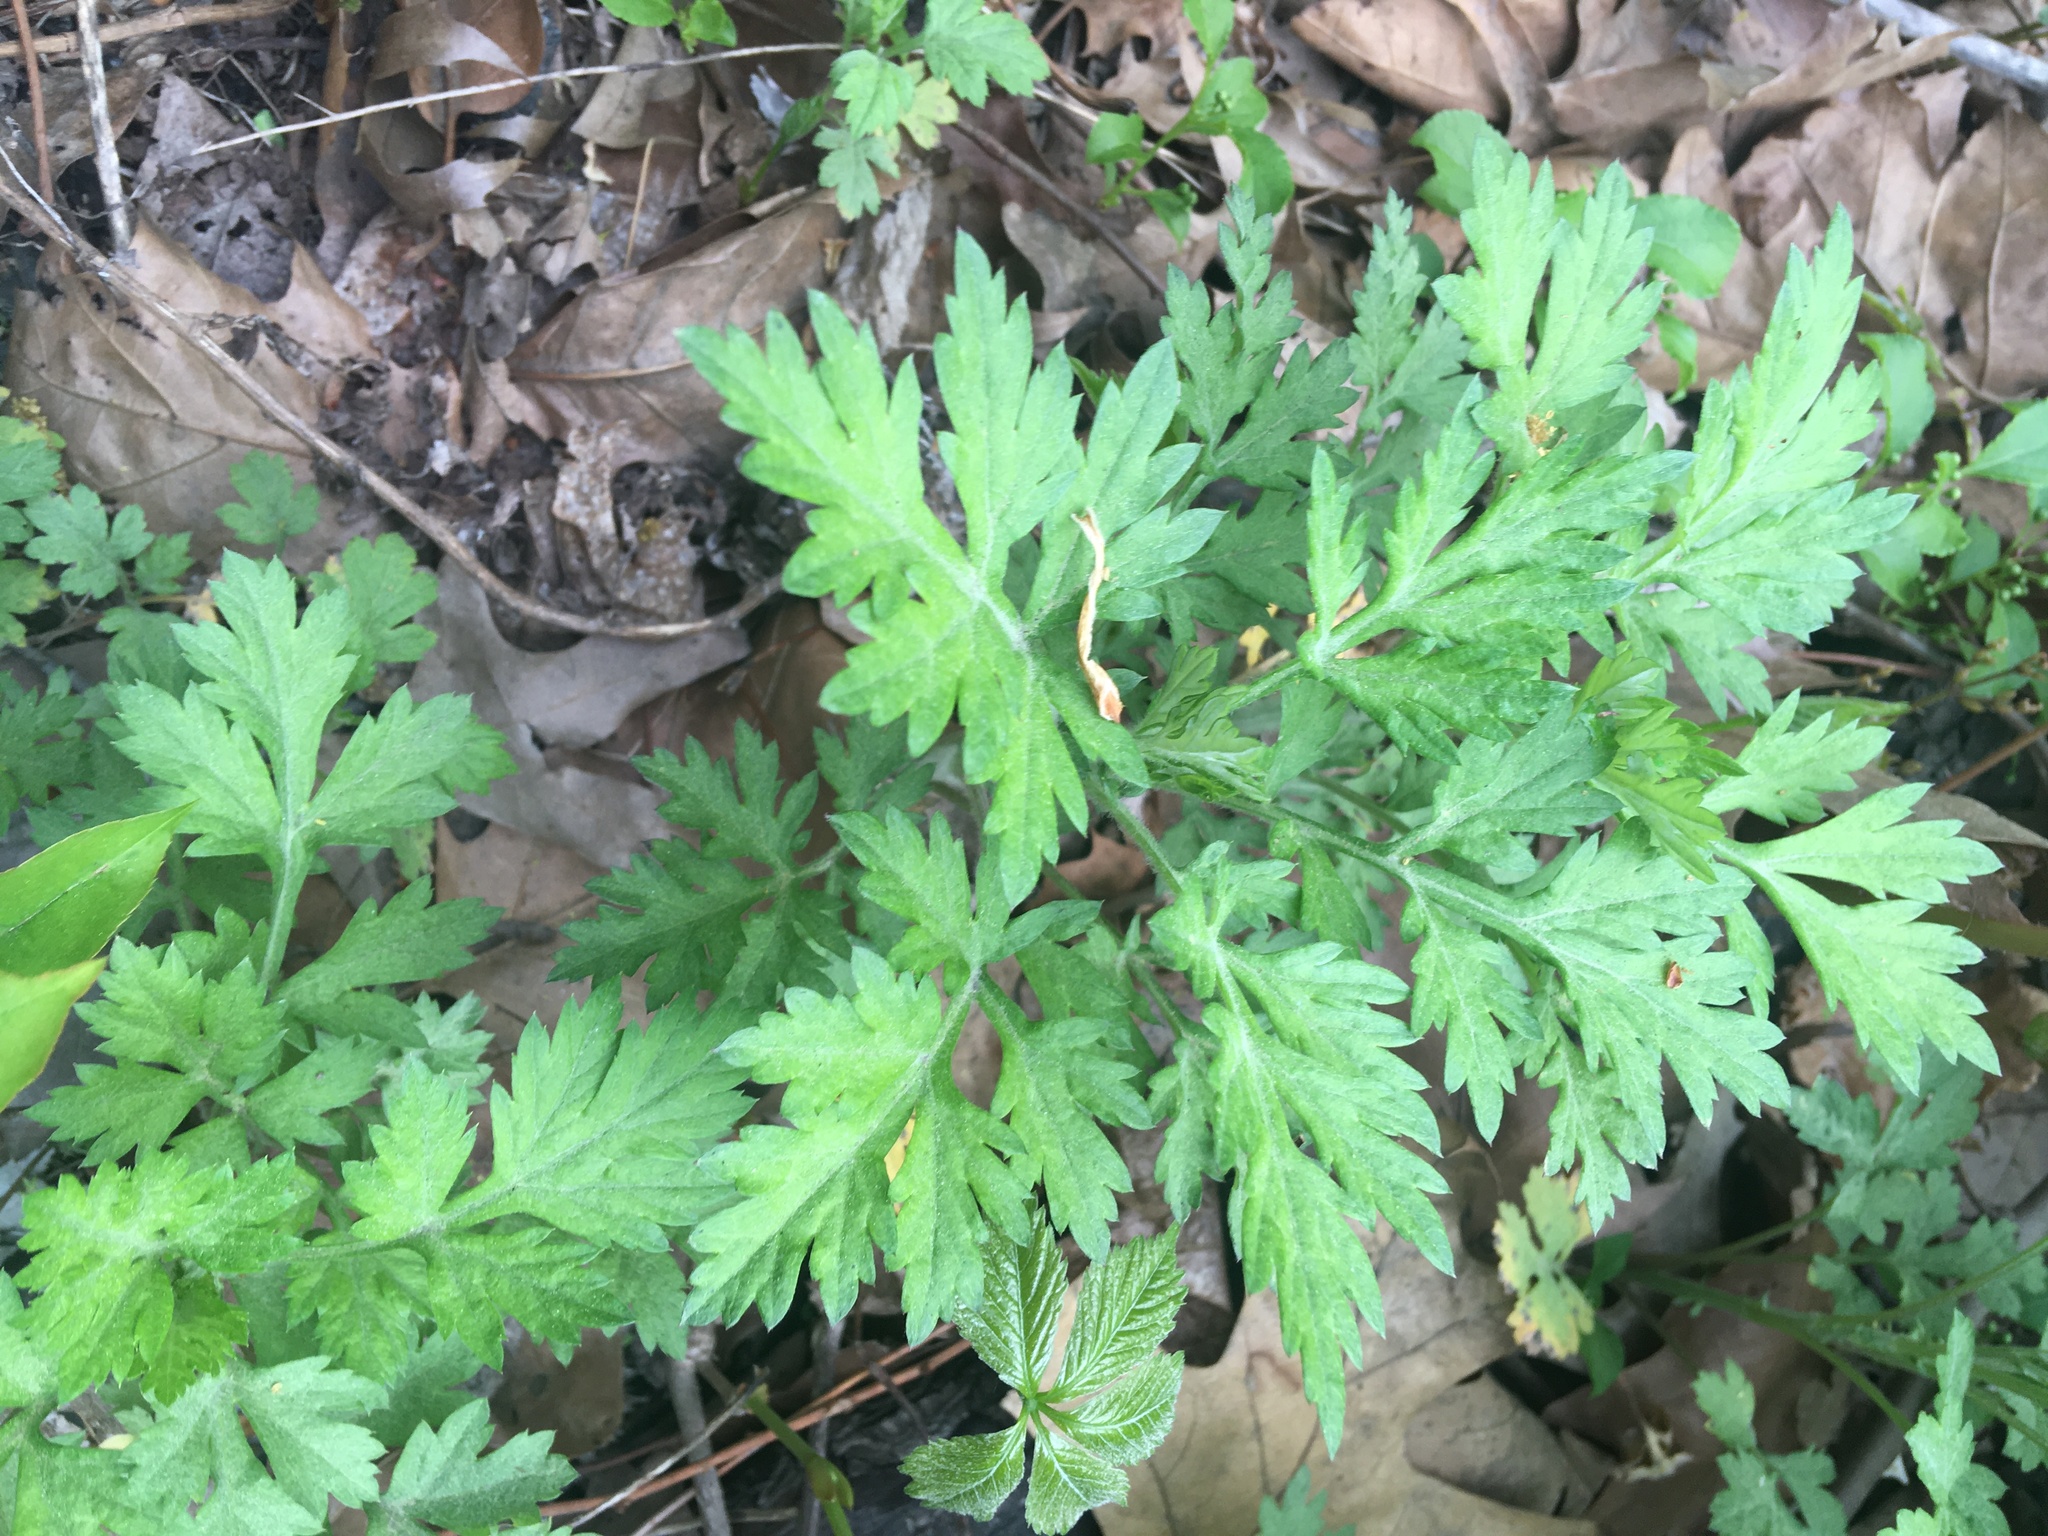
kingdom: Plantae
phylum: Tracheophyta
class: Magnoliopsida
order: Asterales
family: Asteraceae
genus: Artemisia
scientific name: Artemisia vulgaris
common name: Mugwort
